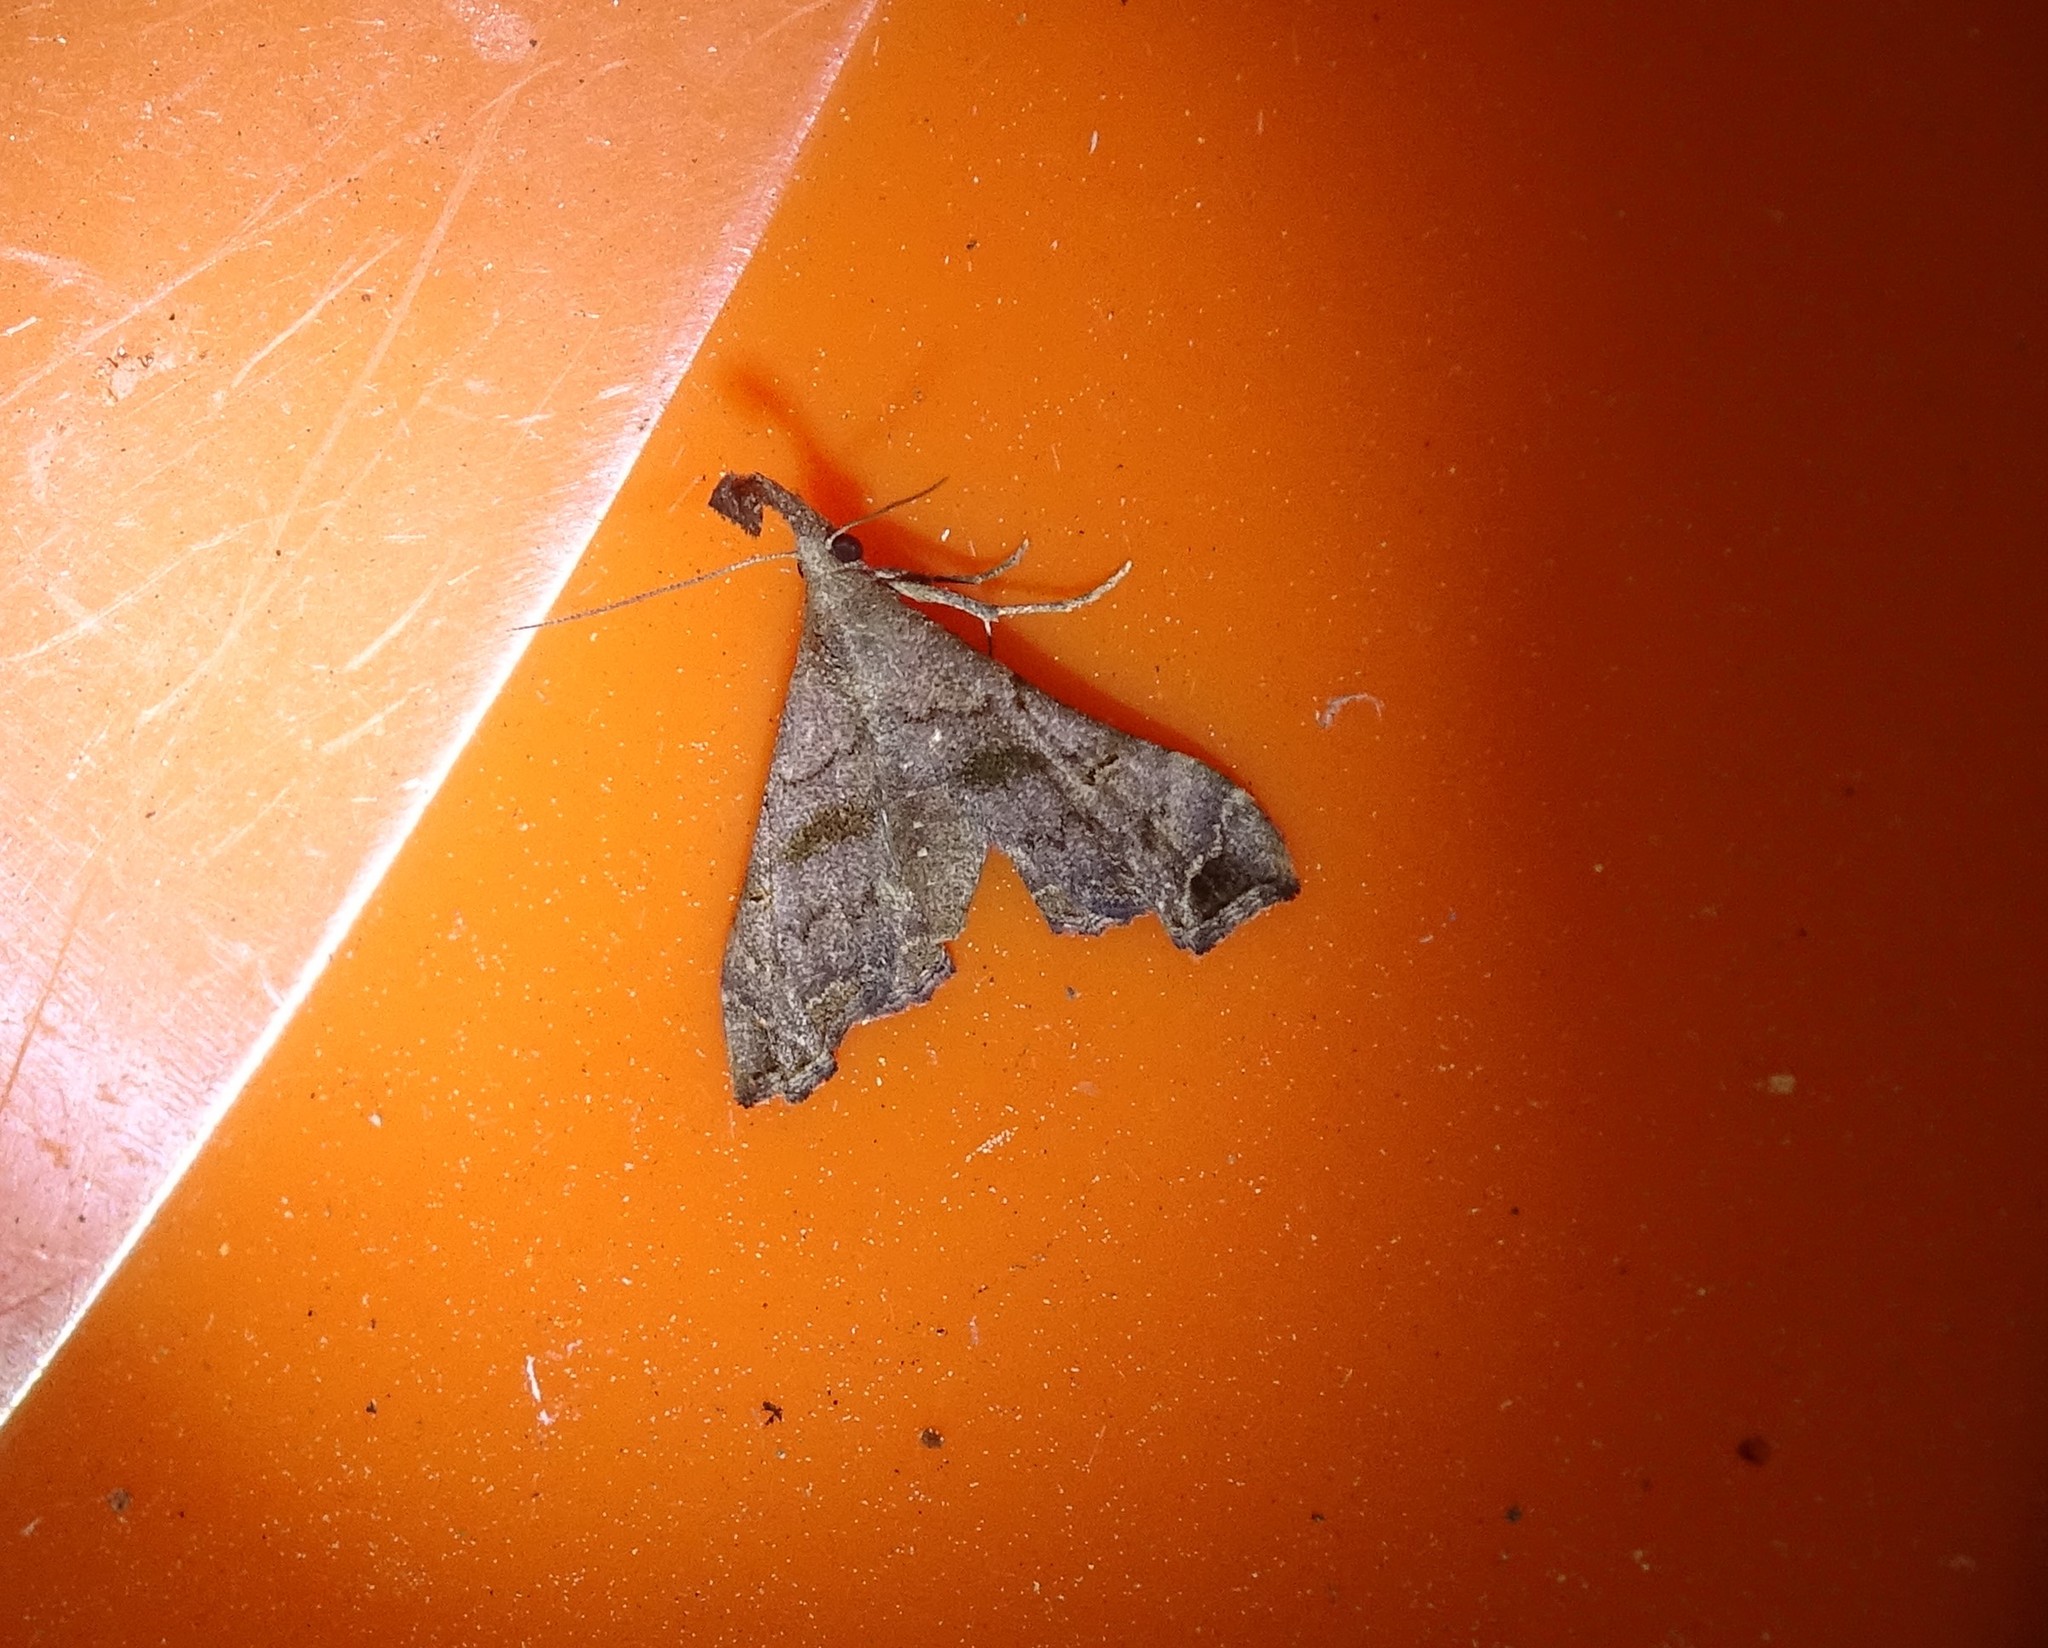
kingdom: Animalia
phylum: Arthropoda
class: Insecta
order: Lepidoptera
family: Erebidae
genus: Palthis
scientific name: Palthis asopialis
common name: Faint-spotted palthis moth
